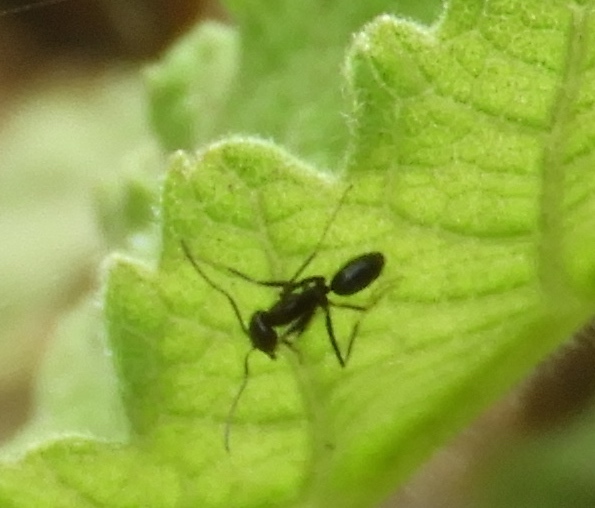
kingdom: Animalia
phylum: Arthropoda
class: Insecta
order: Hymenoptera
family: Formicidae
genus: Dorymyrmex
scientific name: Dorymyrmex
